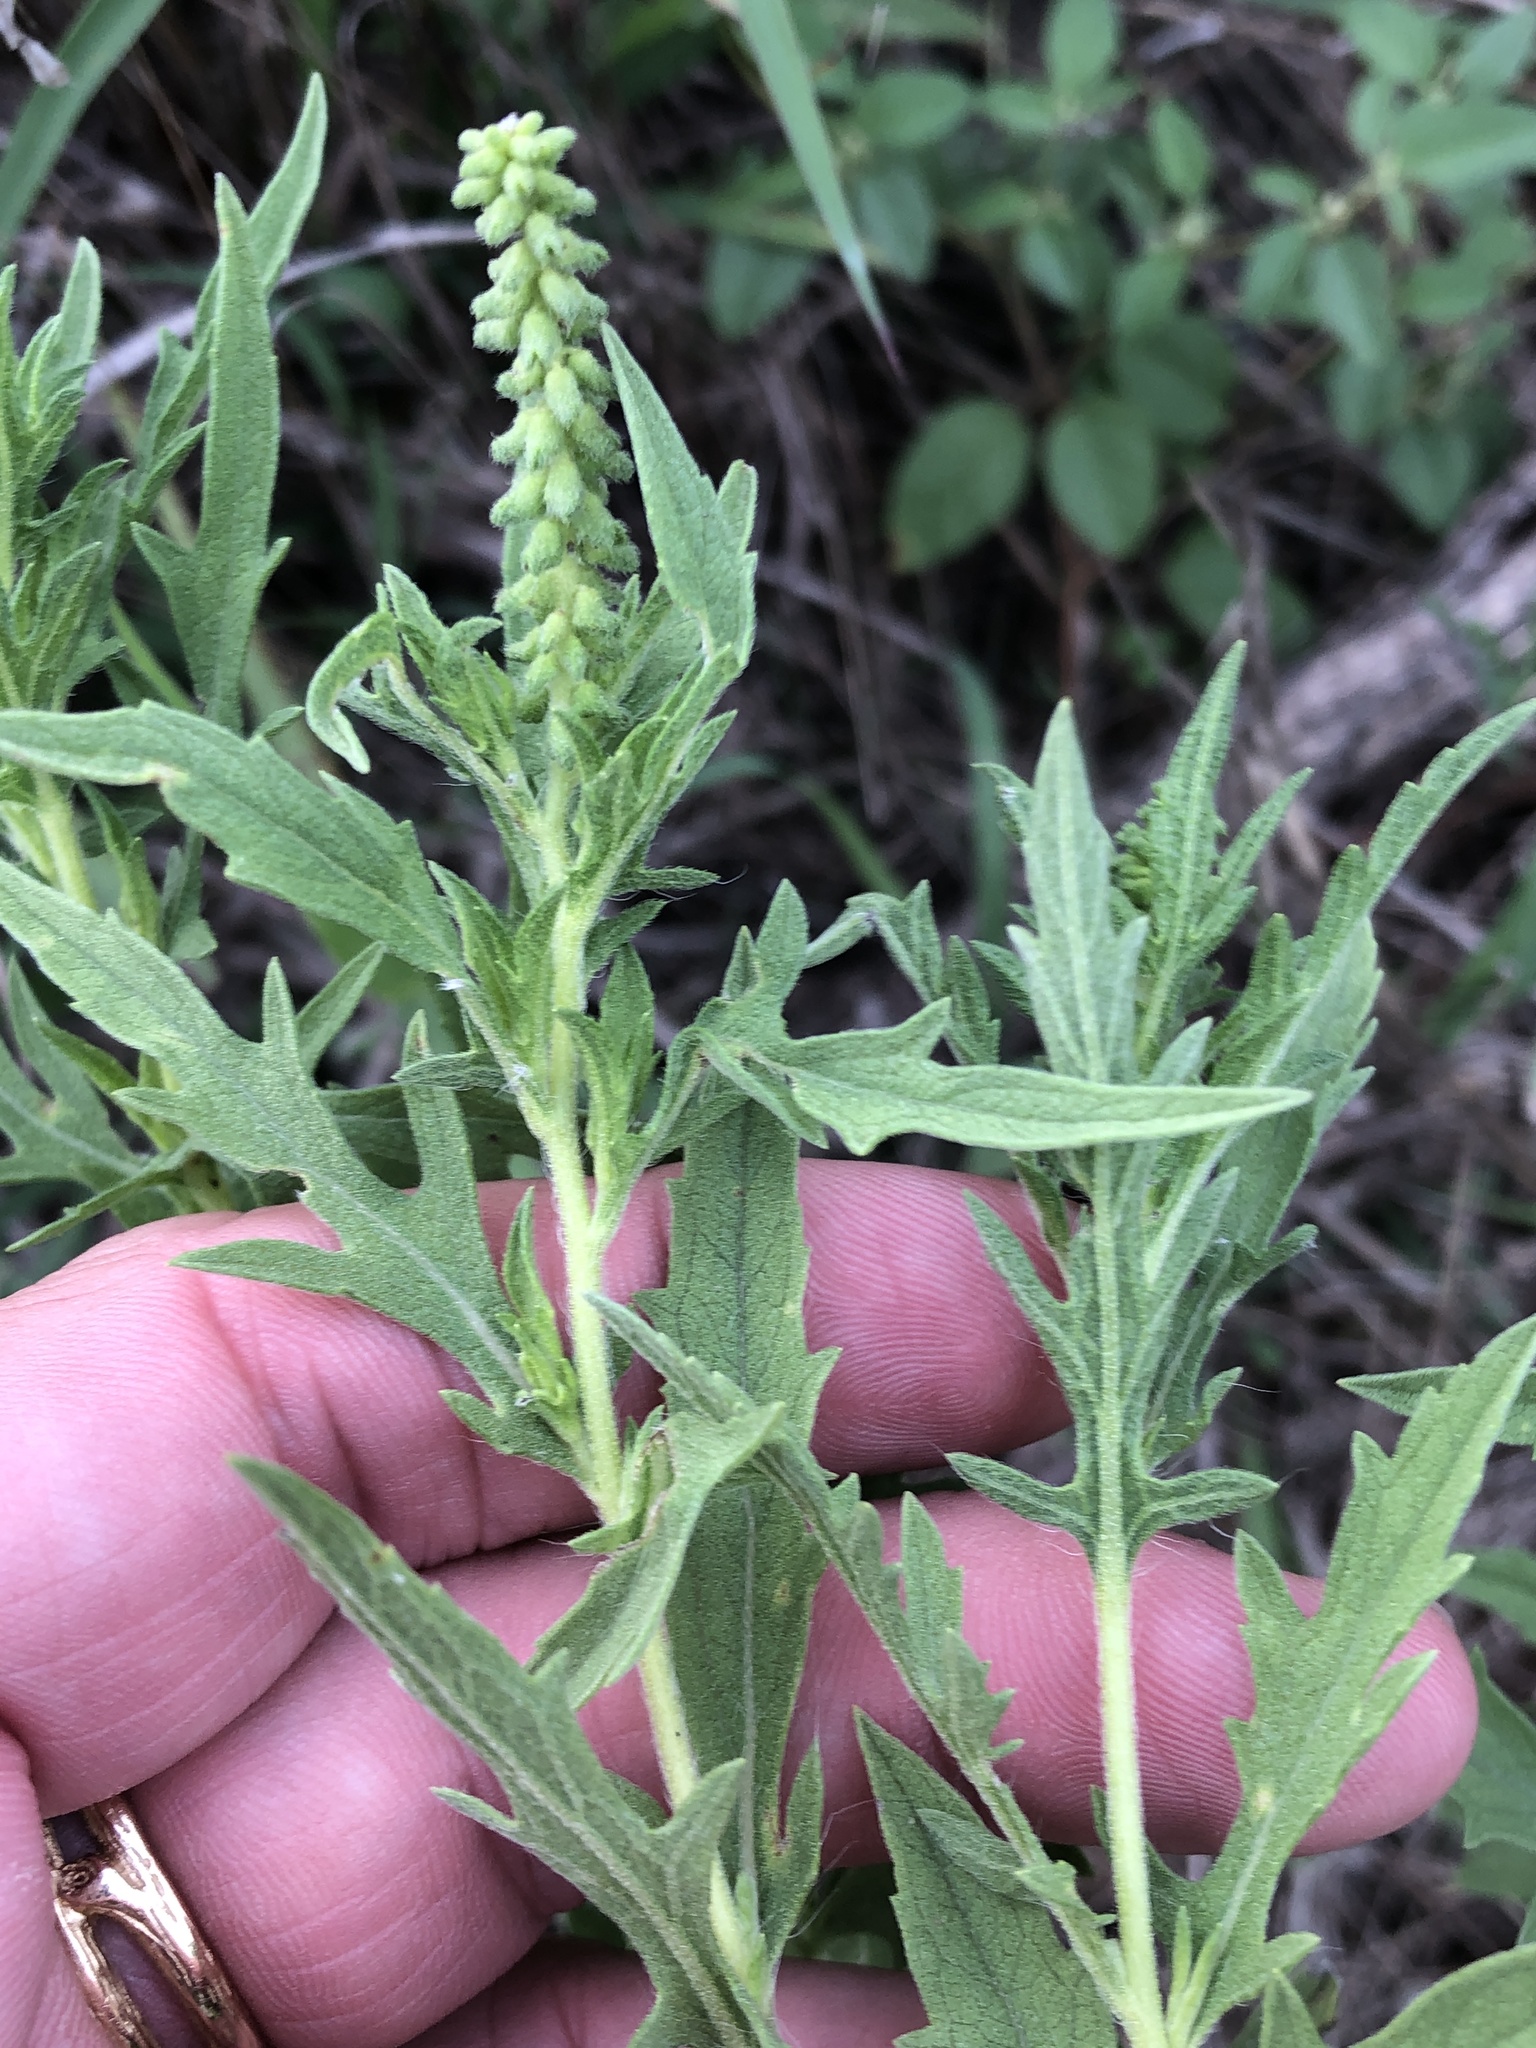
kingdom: Plantae
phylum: Tracheophyta
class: Magnoliopsida
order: Asterales
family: Asteraceae
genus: Ambrosia
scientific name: Ambrosia psilostachya
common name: Perennial ragweed
